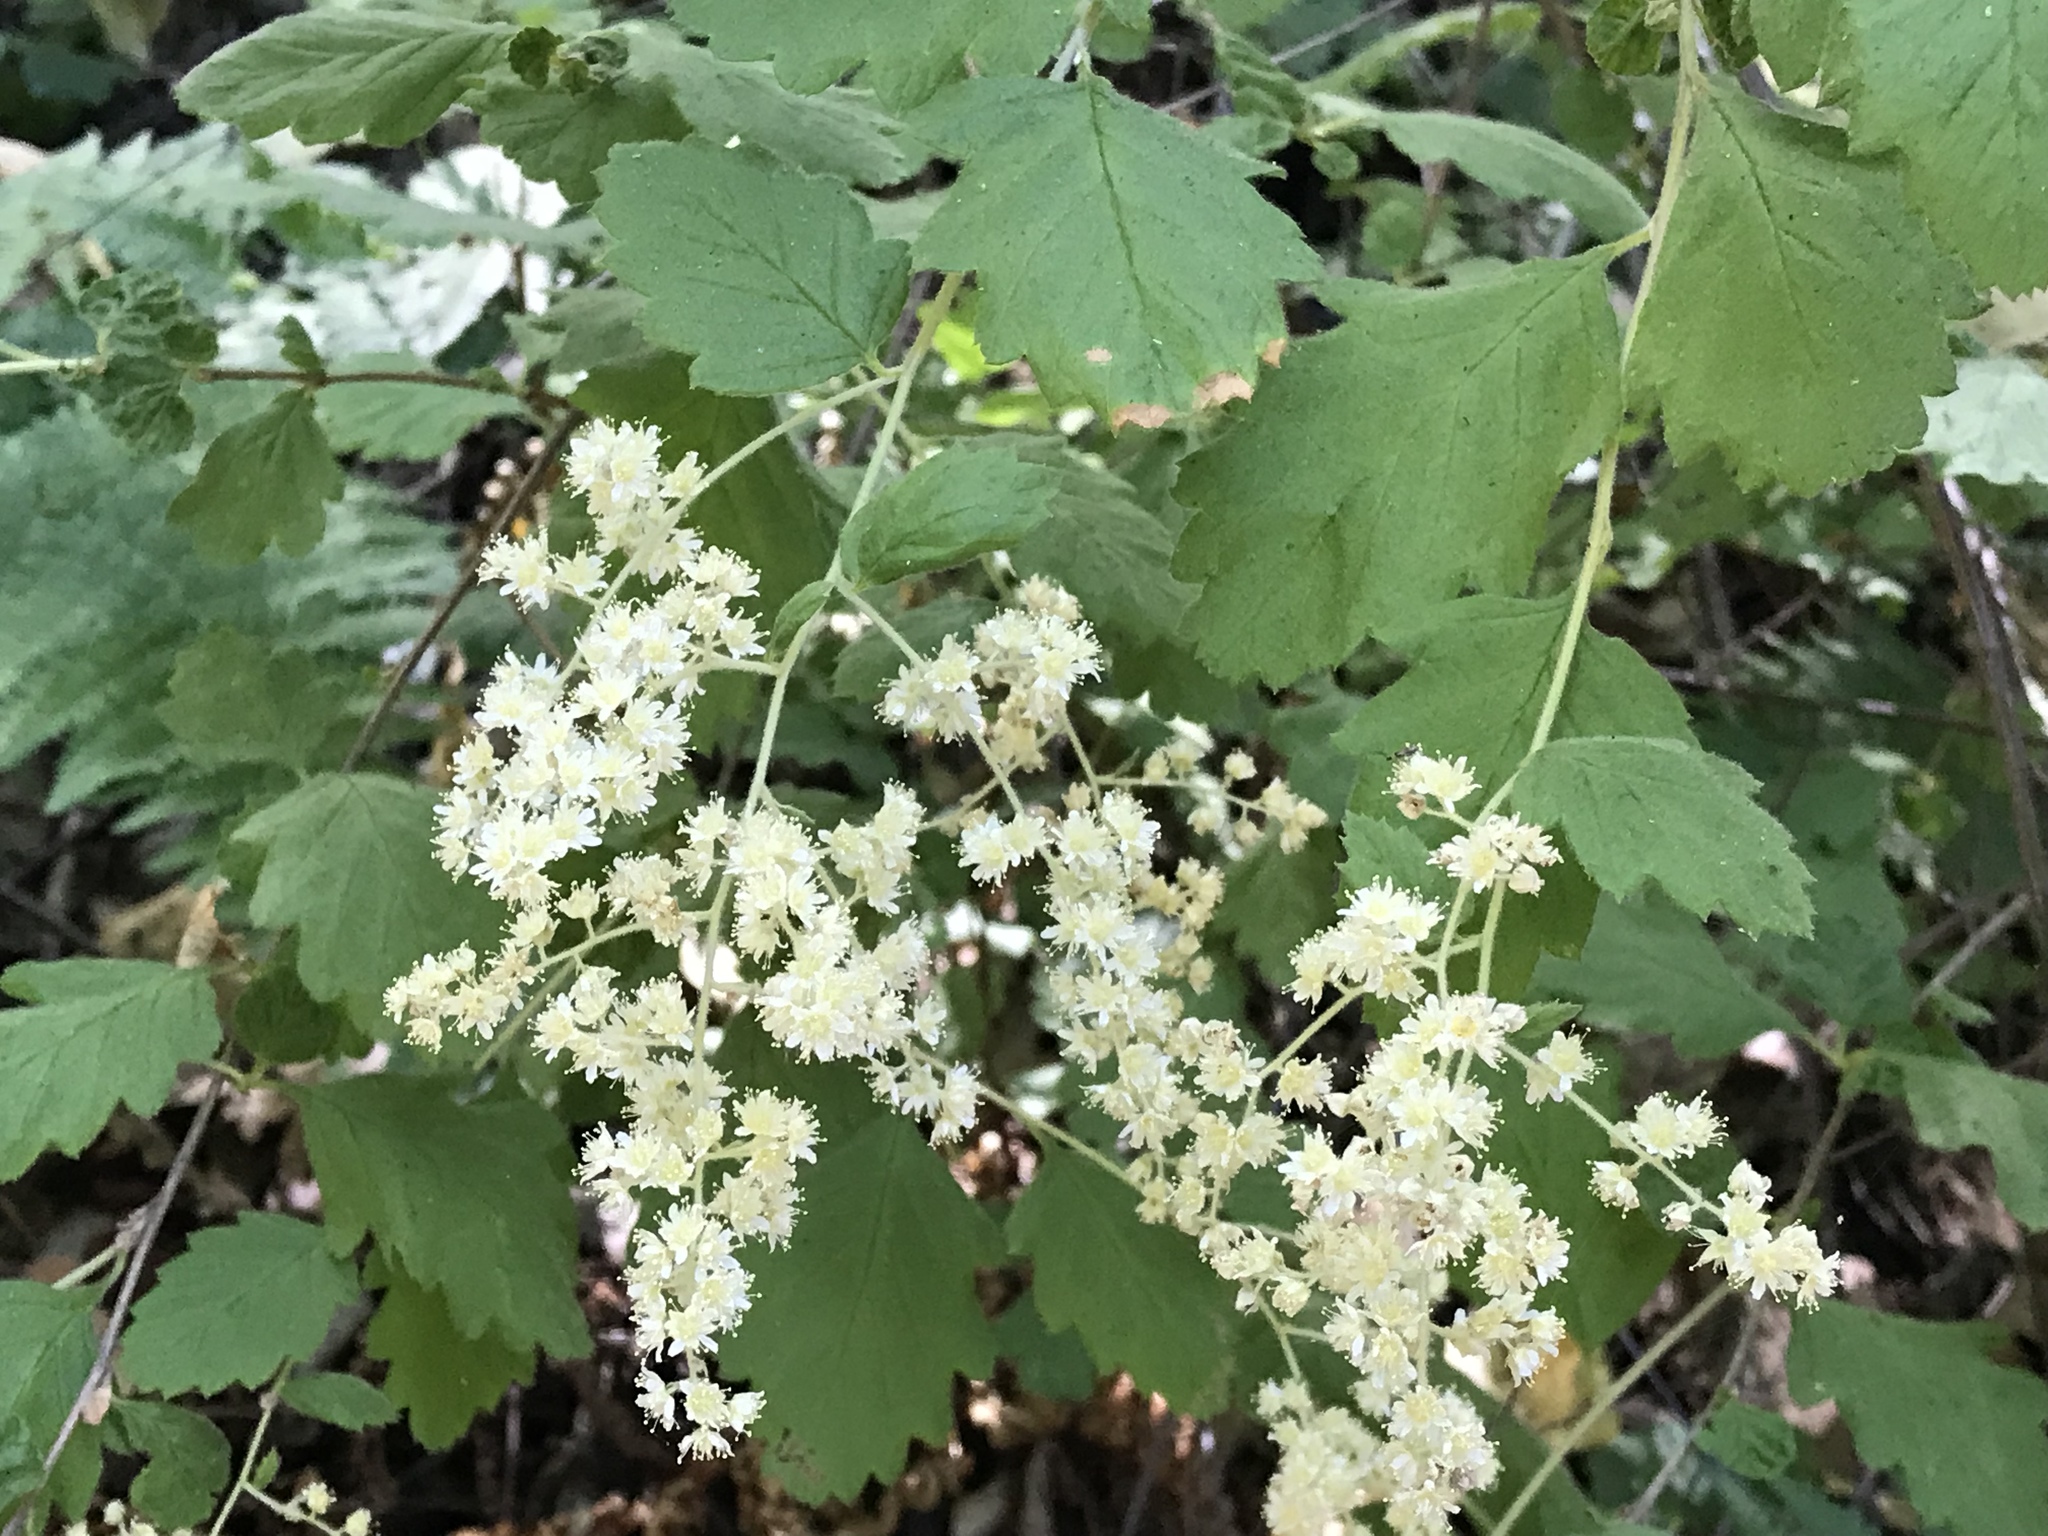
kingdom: Plantae
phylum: Tracheophyta
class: Magnoliopsida
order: Rosales
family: Rosaceae
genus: Holodiscus
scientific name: Holodiscus discolor
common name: Oceanspray
